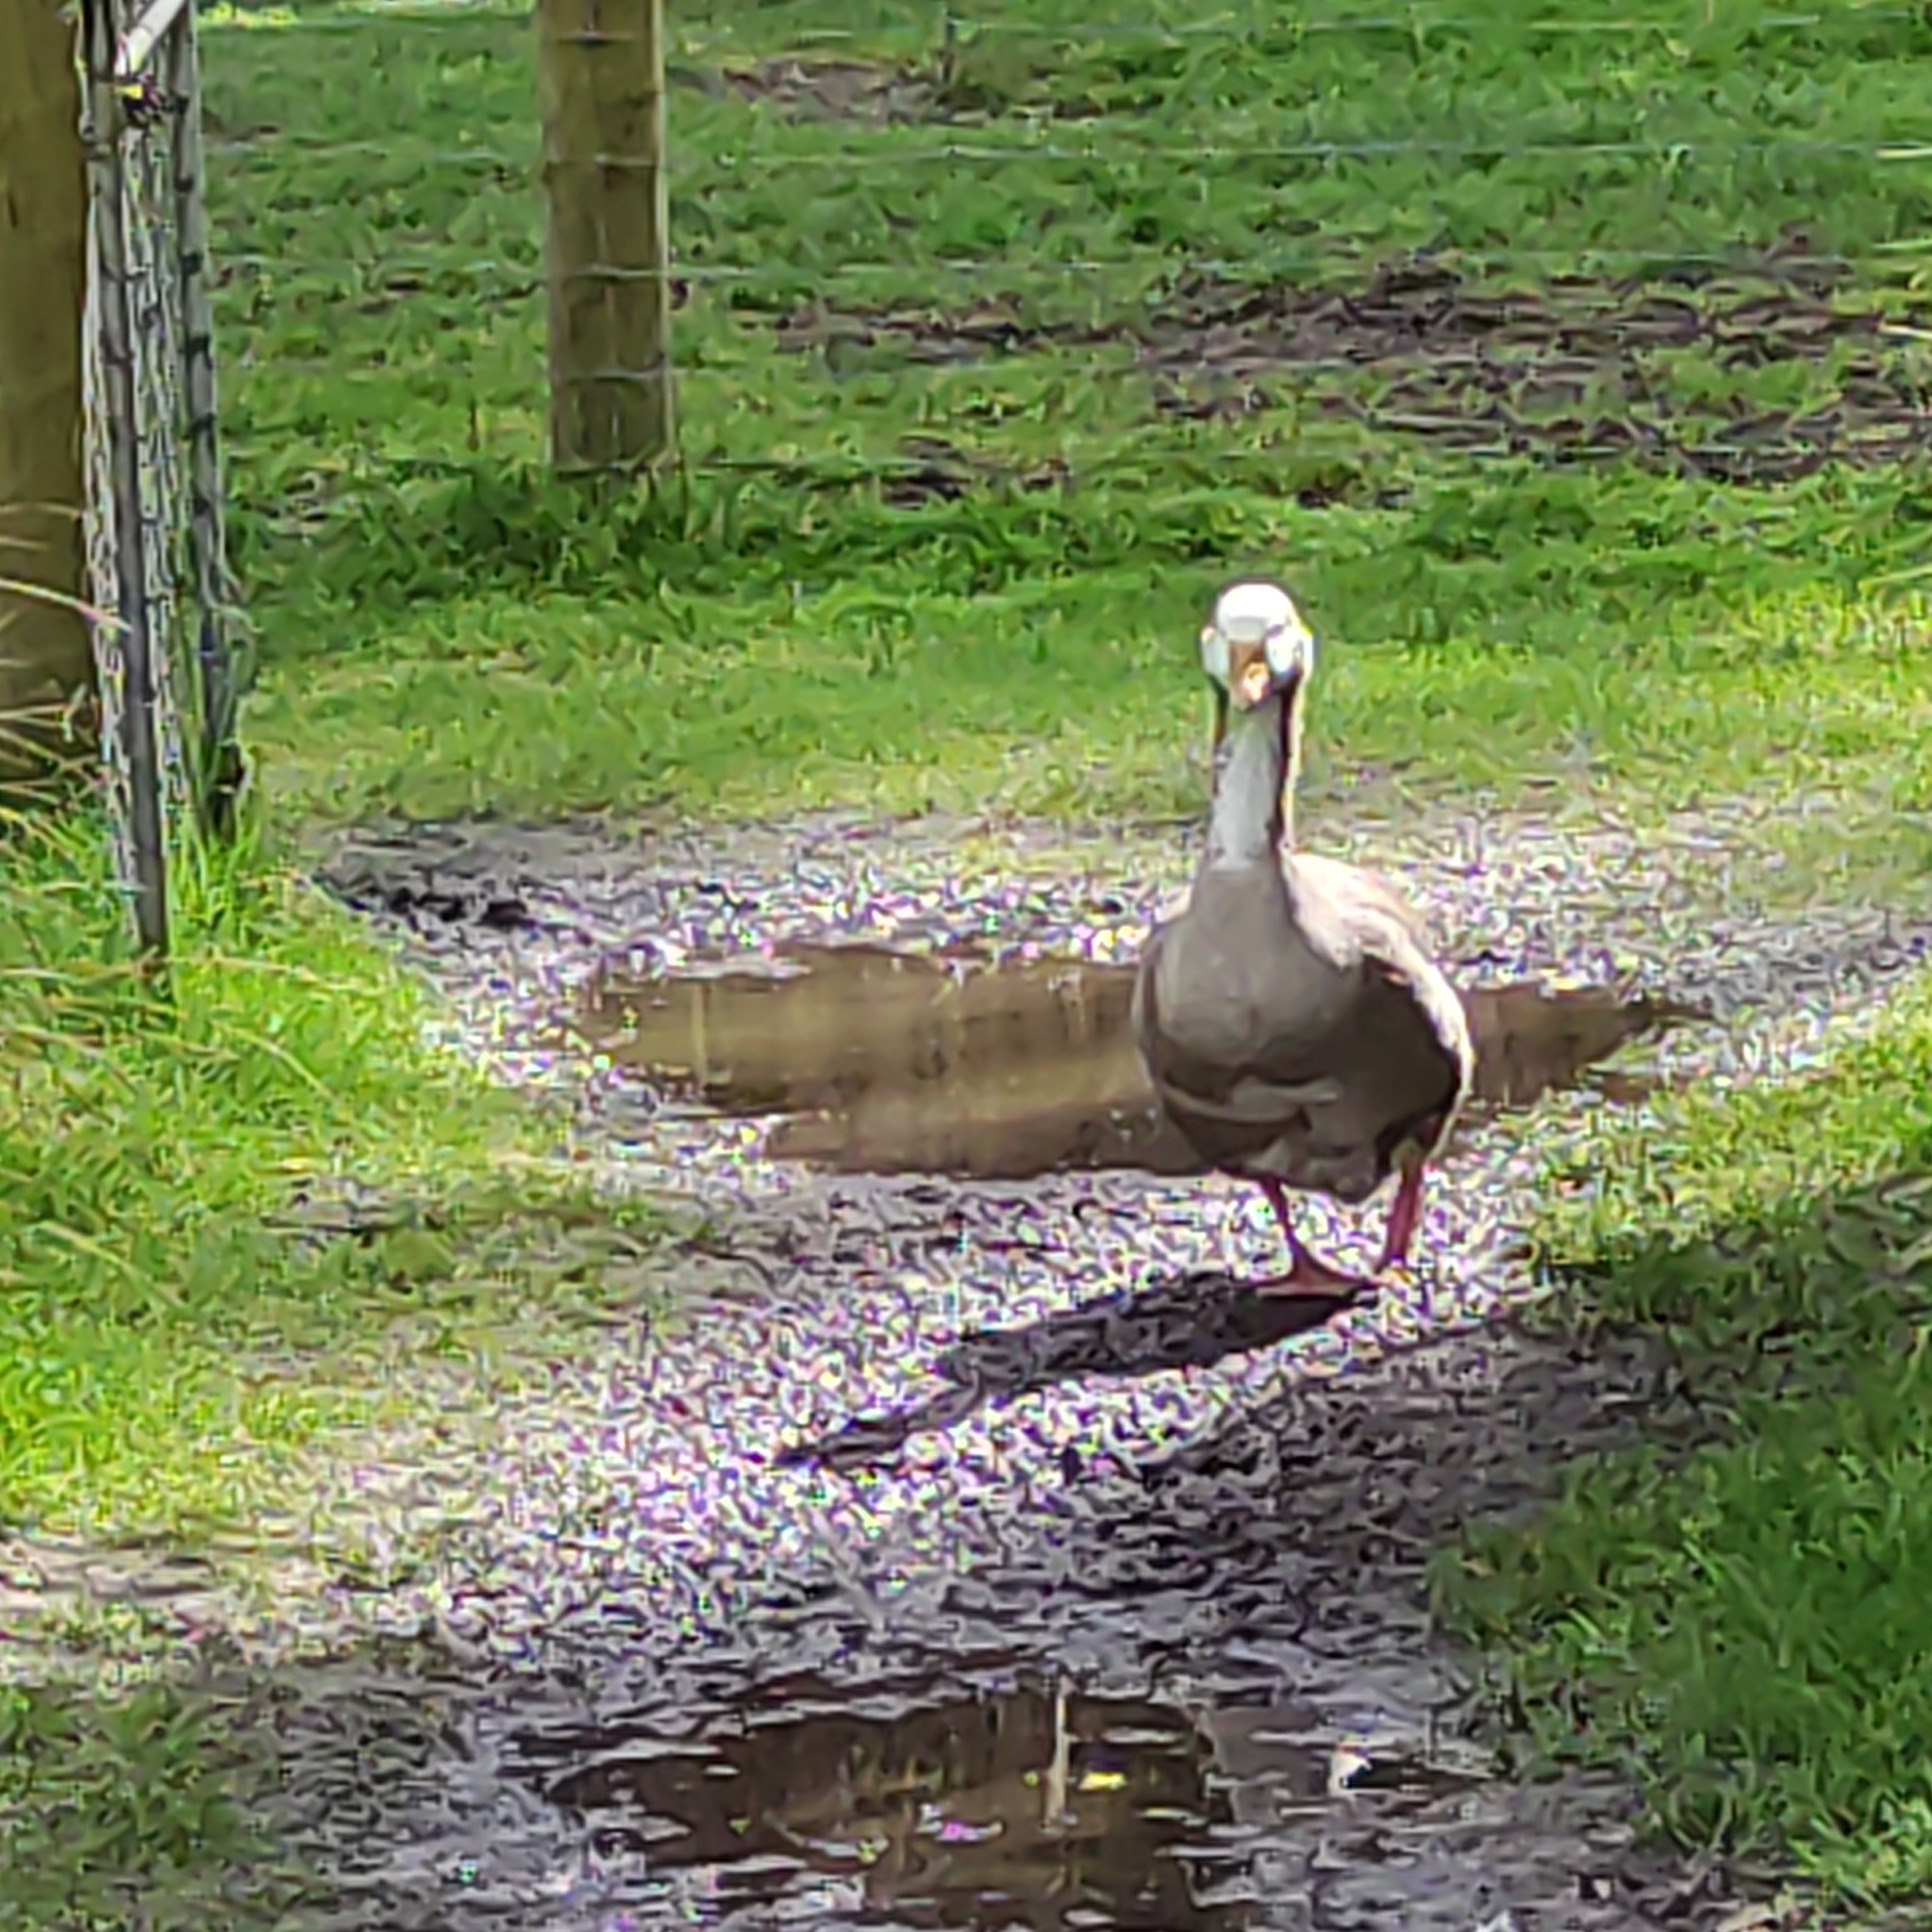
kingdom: Animalia
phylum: Chordata
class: Aves
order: Anseriformes
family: Anatidae
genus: Anser
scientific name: Anser anser
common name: Greylag goose
